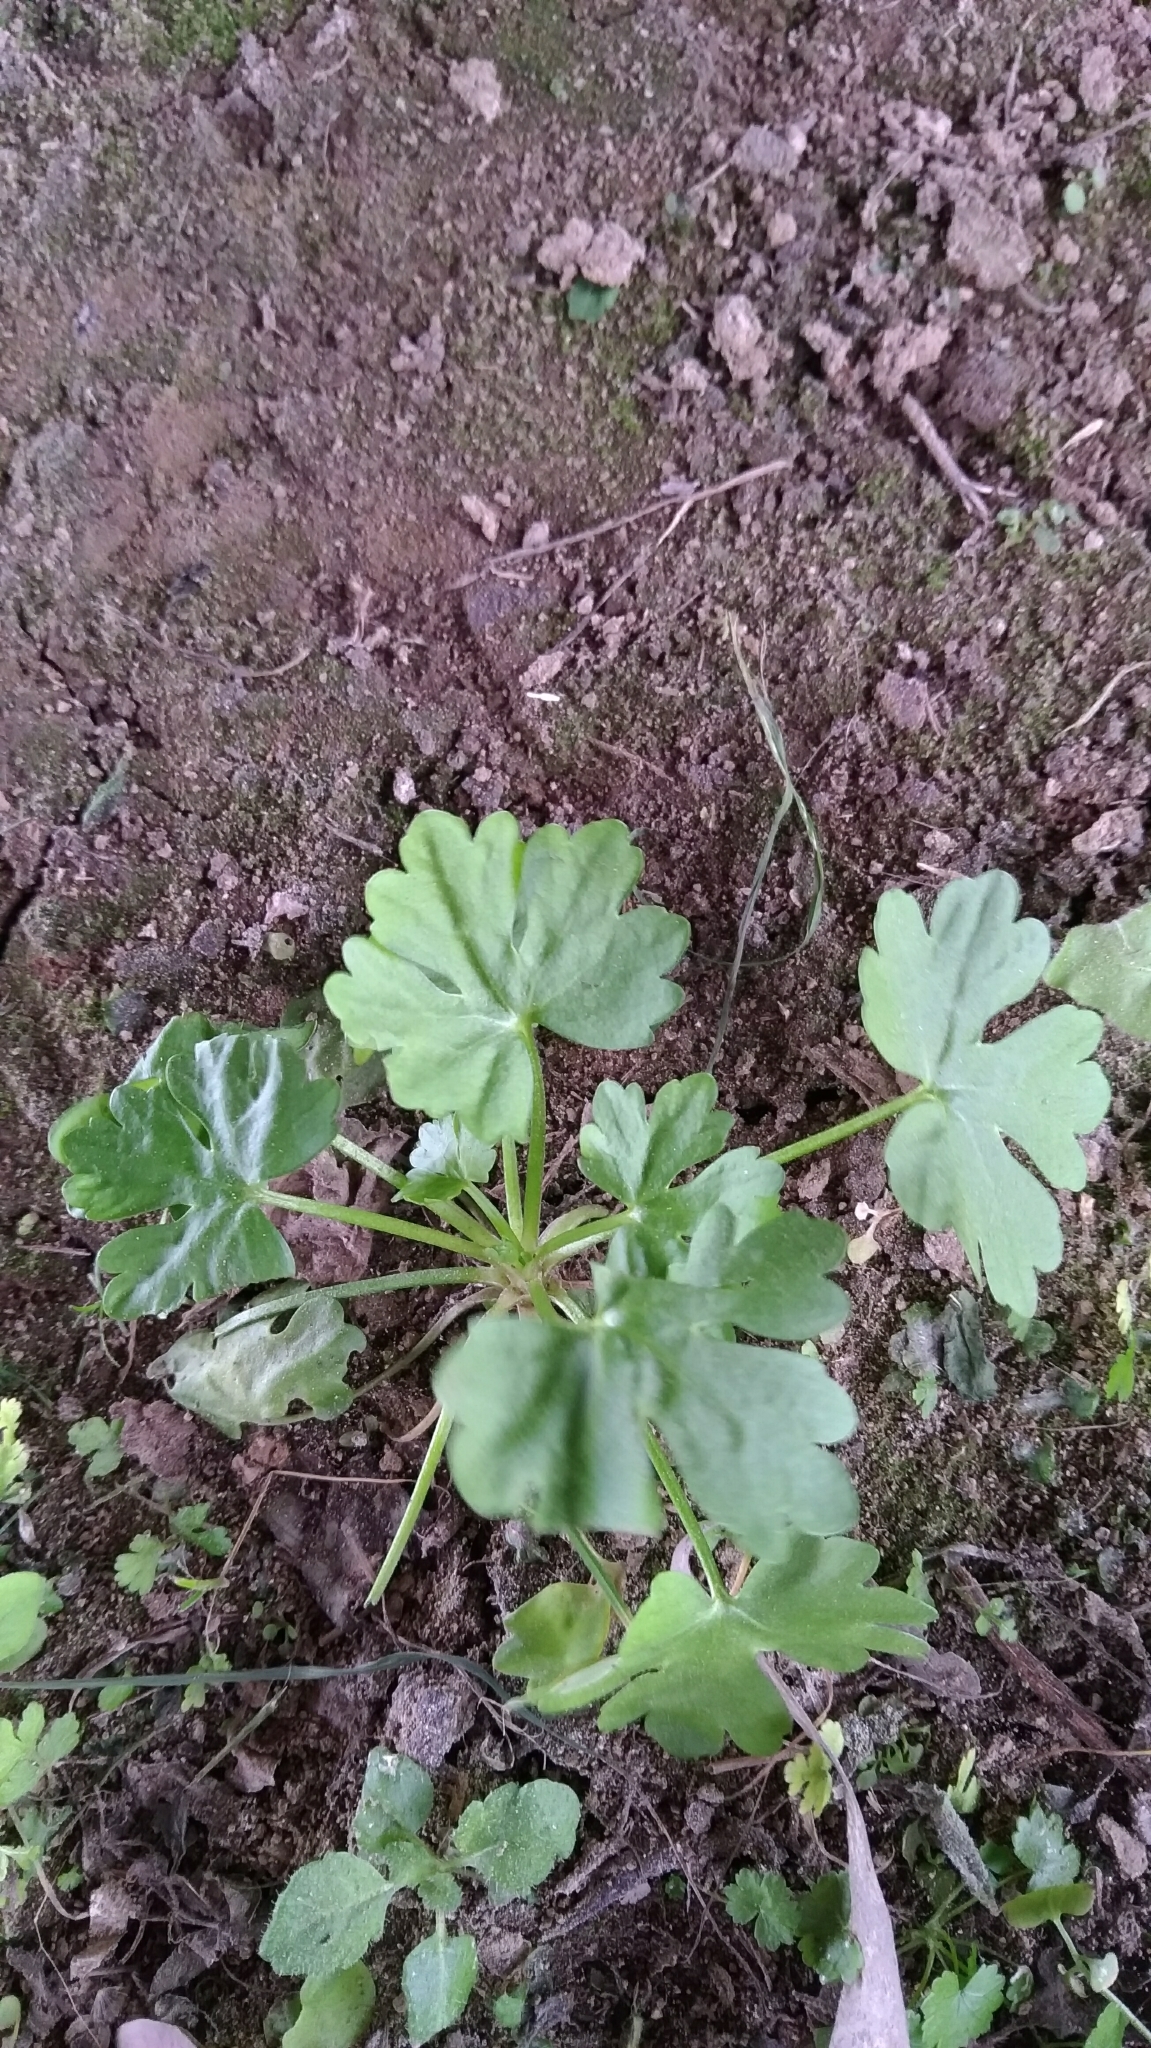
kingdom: Plantae
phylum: Tracheophyta
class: Magnoliopsida
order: Ranunculales
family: Ranunculaceae
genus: Ranunculus
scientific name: Ranunculus sceleratus
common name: Celery-leaved buttercup
